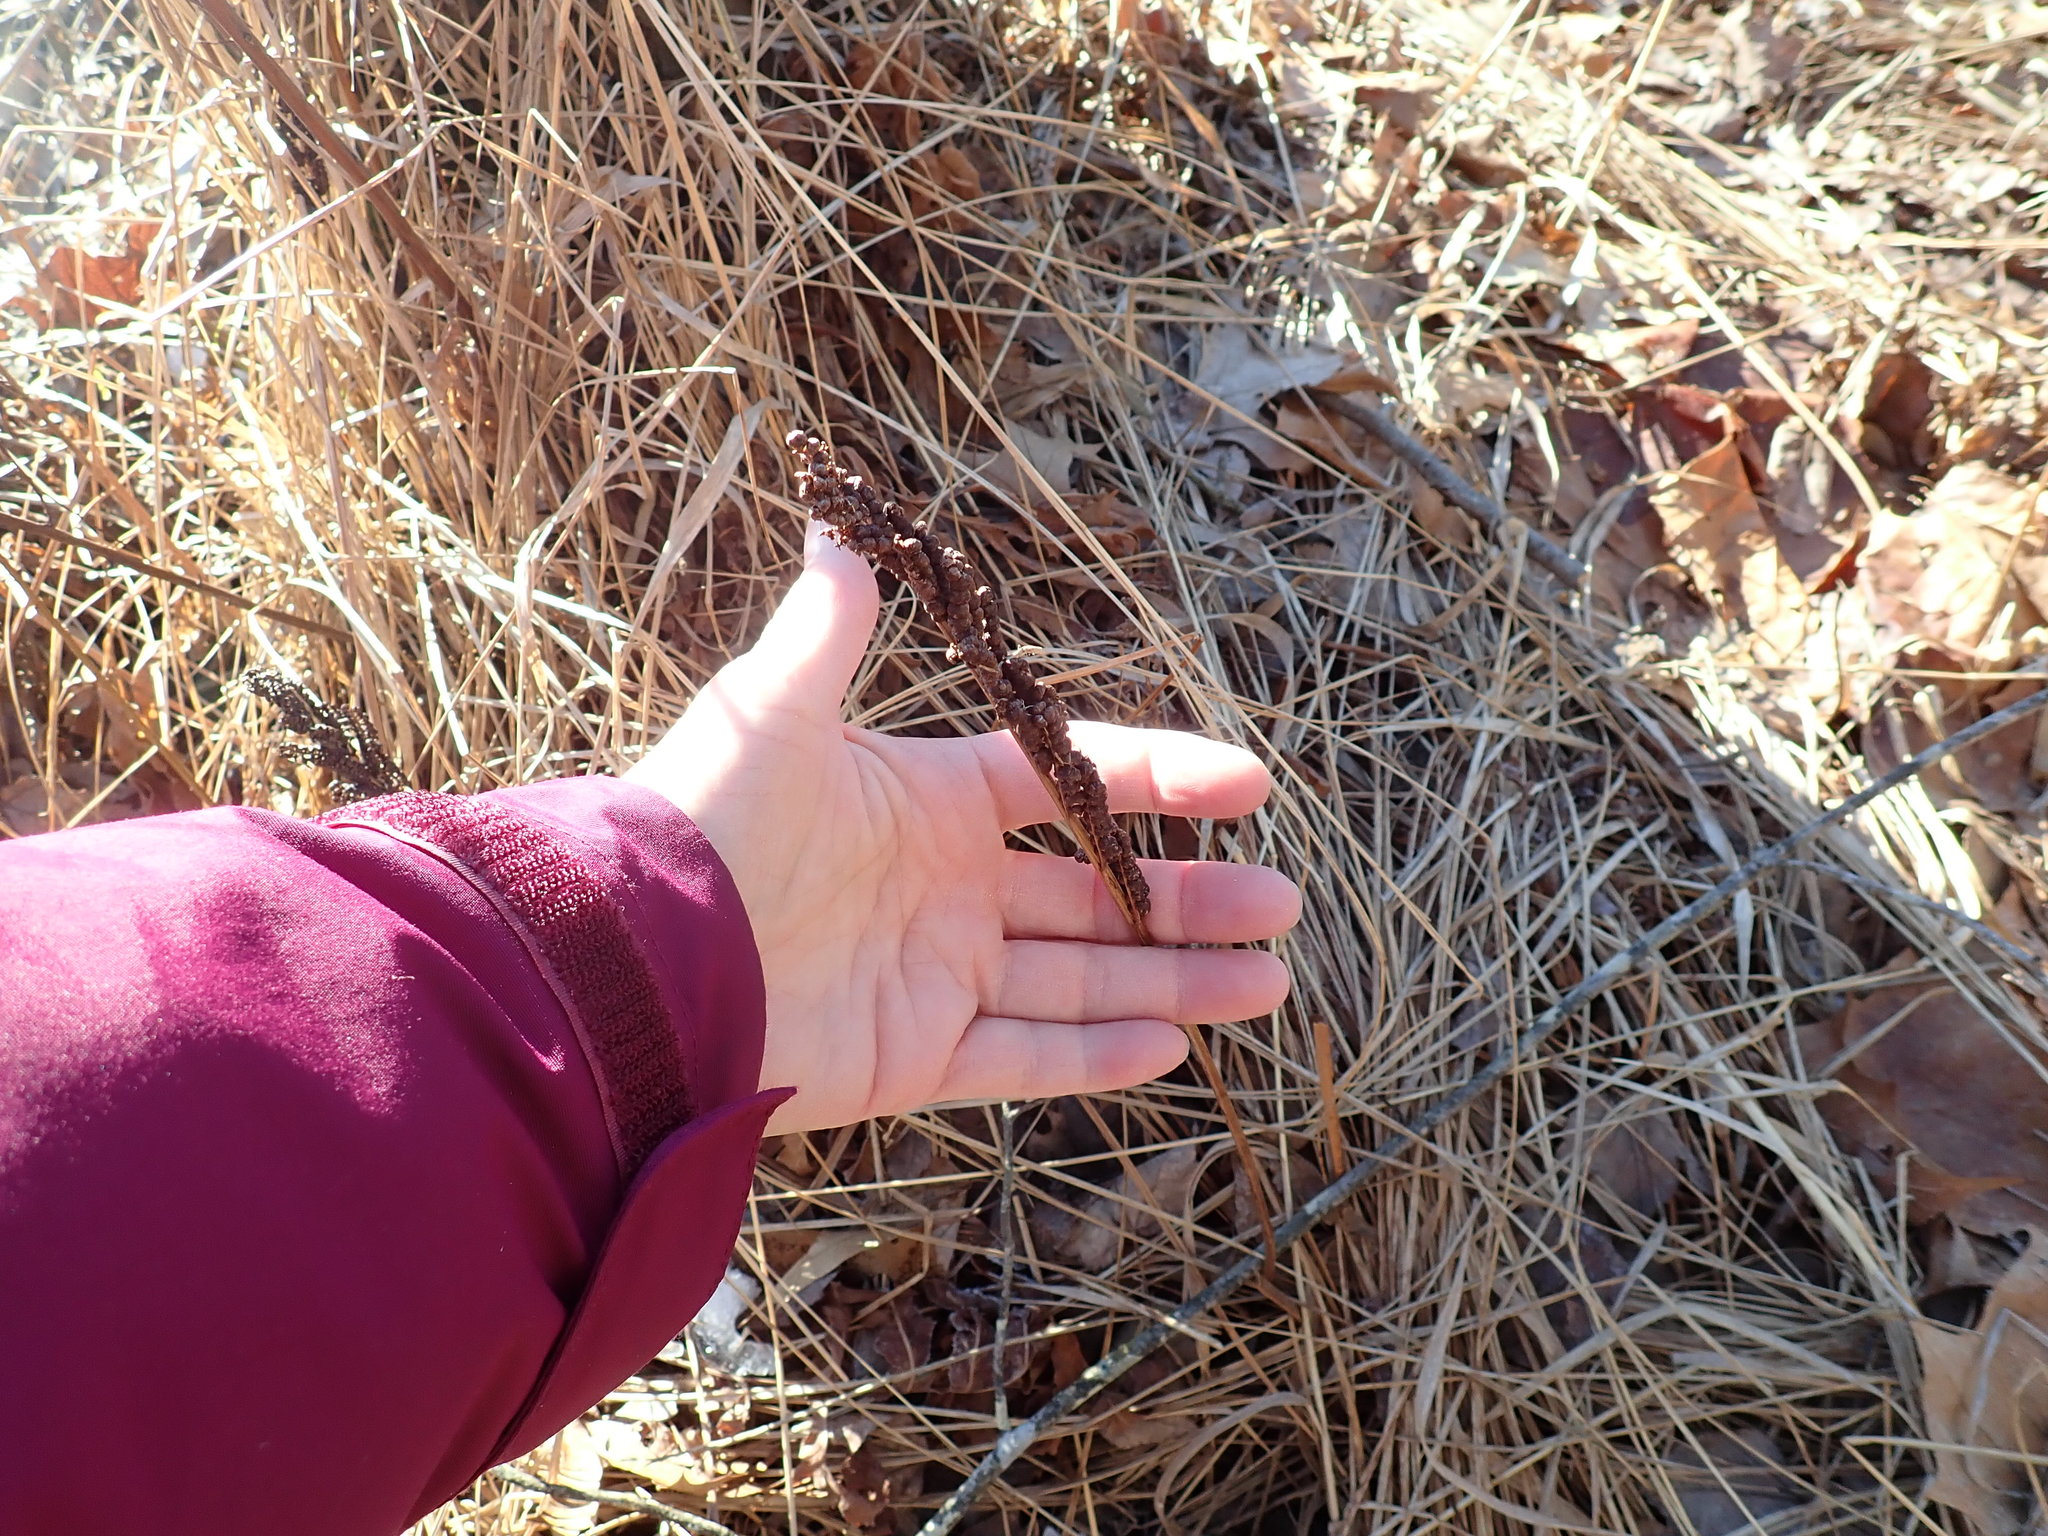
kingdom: Plantae
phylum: Tracheophyta
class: Polypodiopsida
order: Polypodiales
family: Onocleaceae
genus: Onoclea
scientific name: Onoclea sensibilis
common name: Sensitive fern
